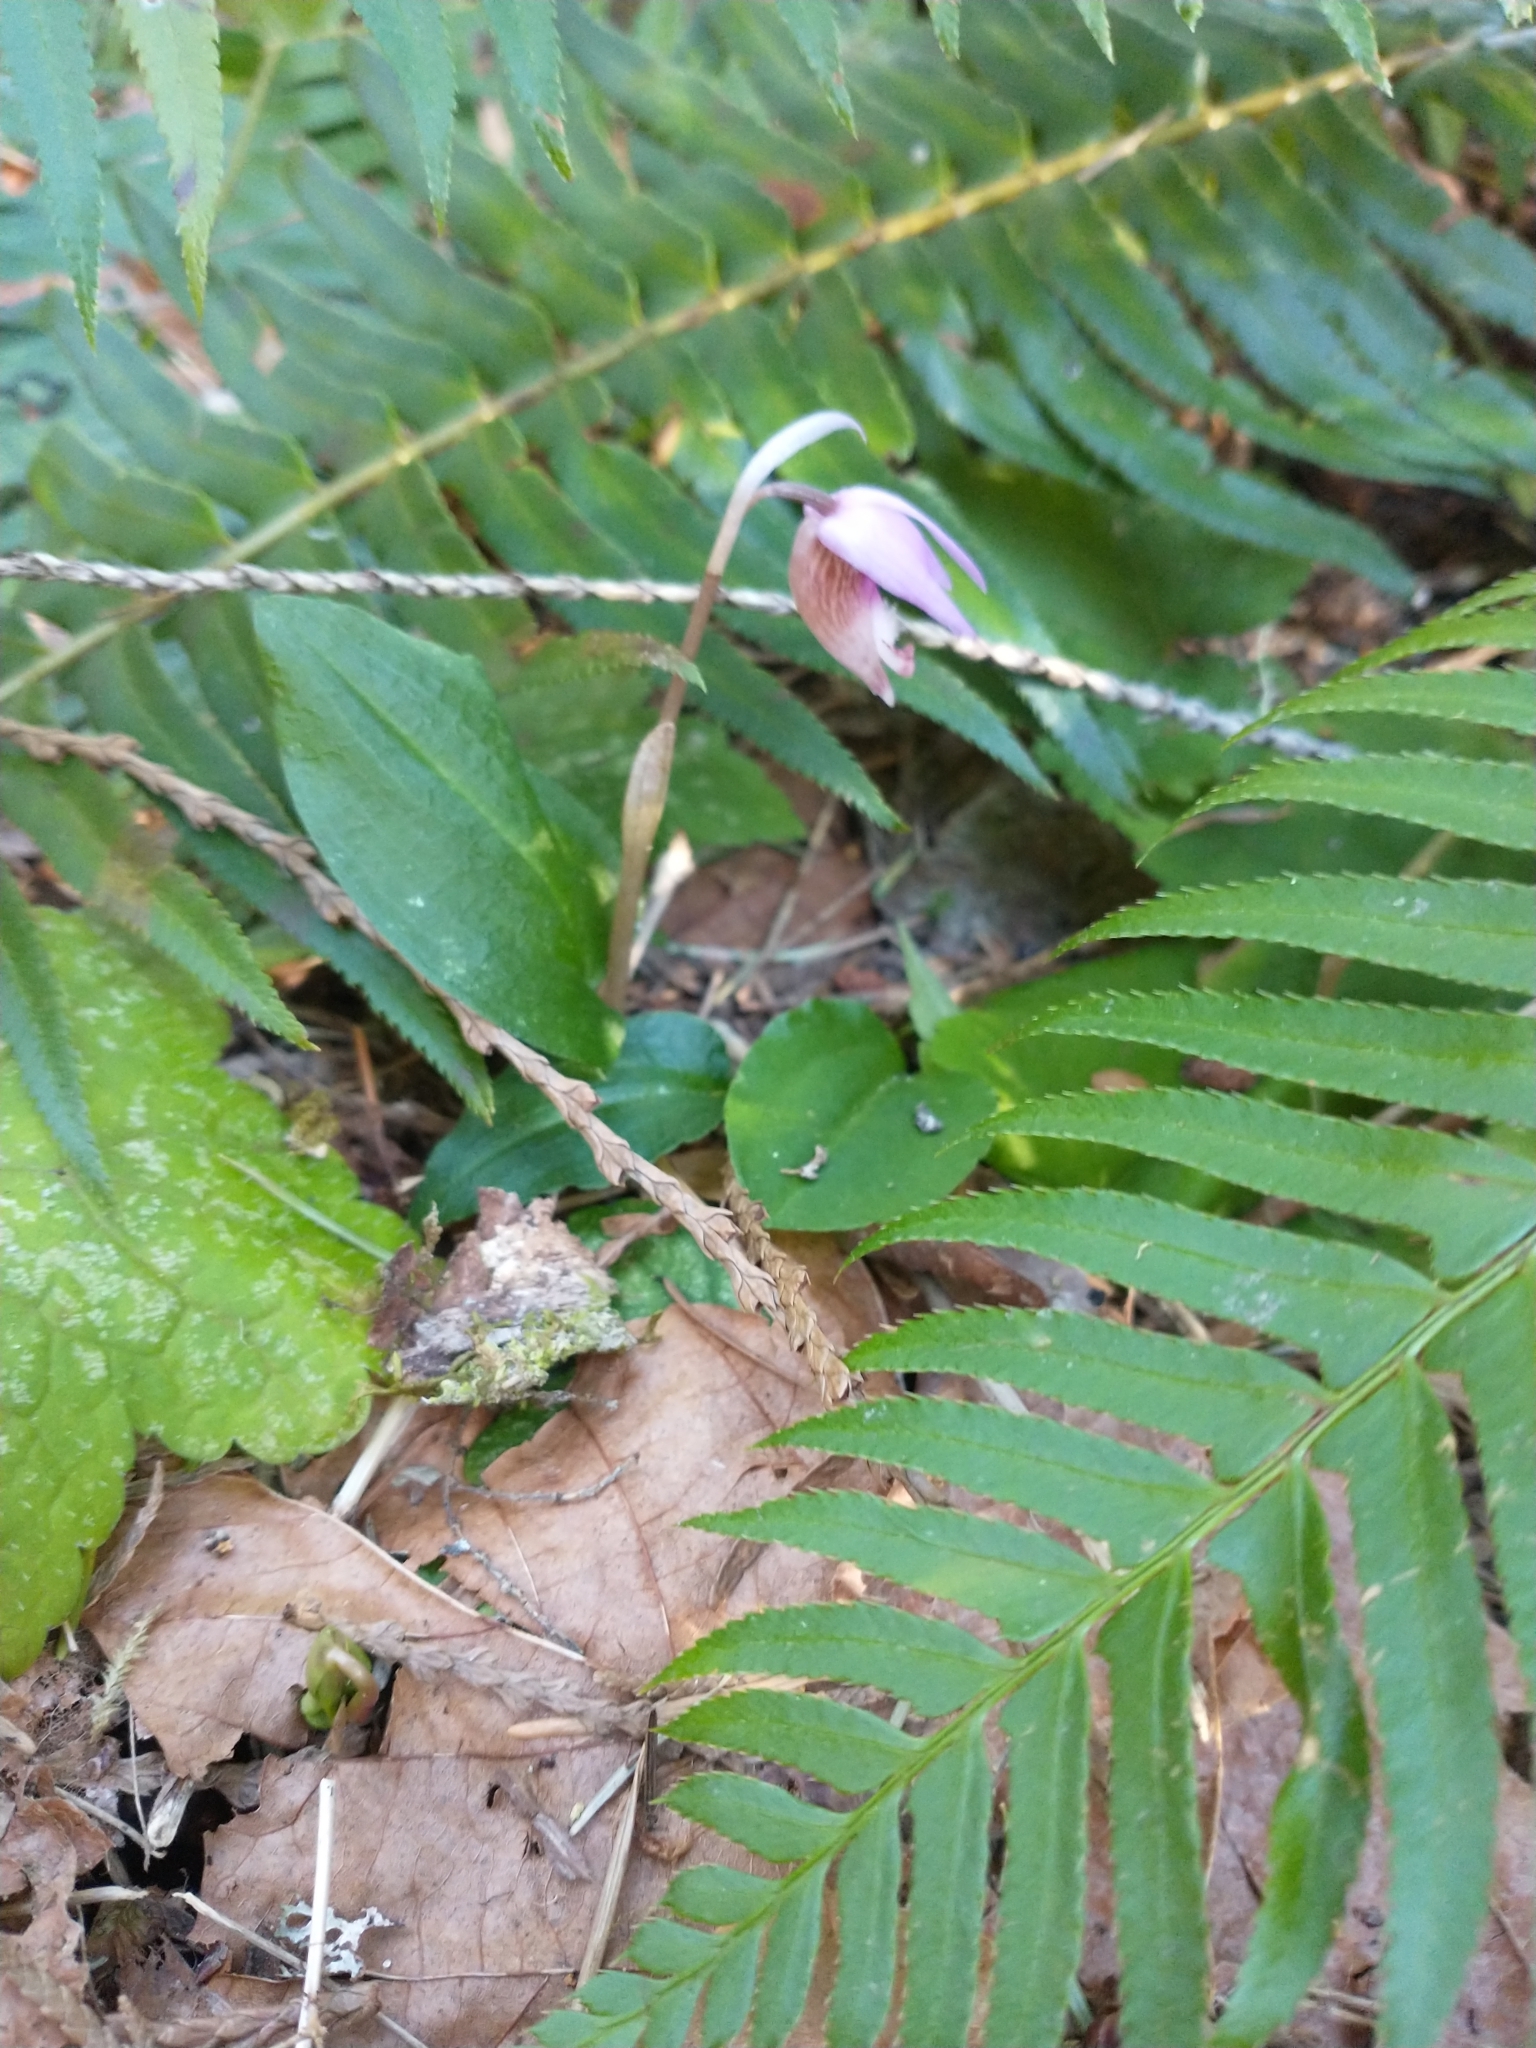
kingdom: Plantae
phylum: Tracheophyta
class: Liliopsida
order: Asparagales
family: Orchidaceae
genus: Calypso
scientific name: Calypso bulbosa
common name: Calypso
